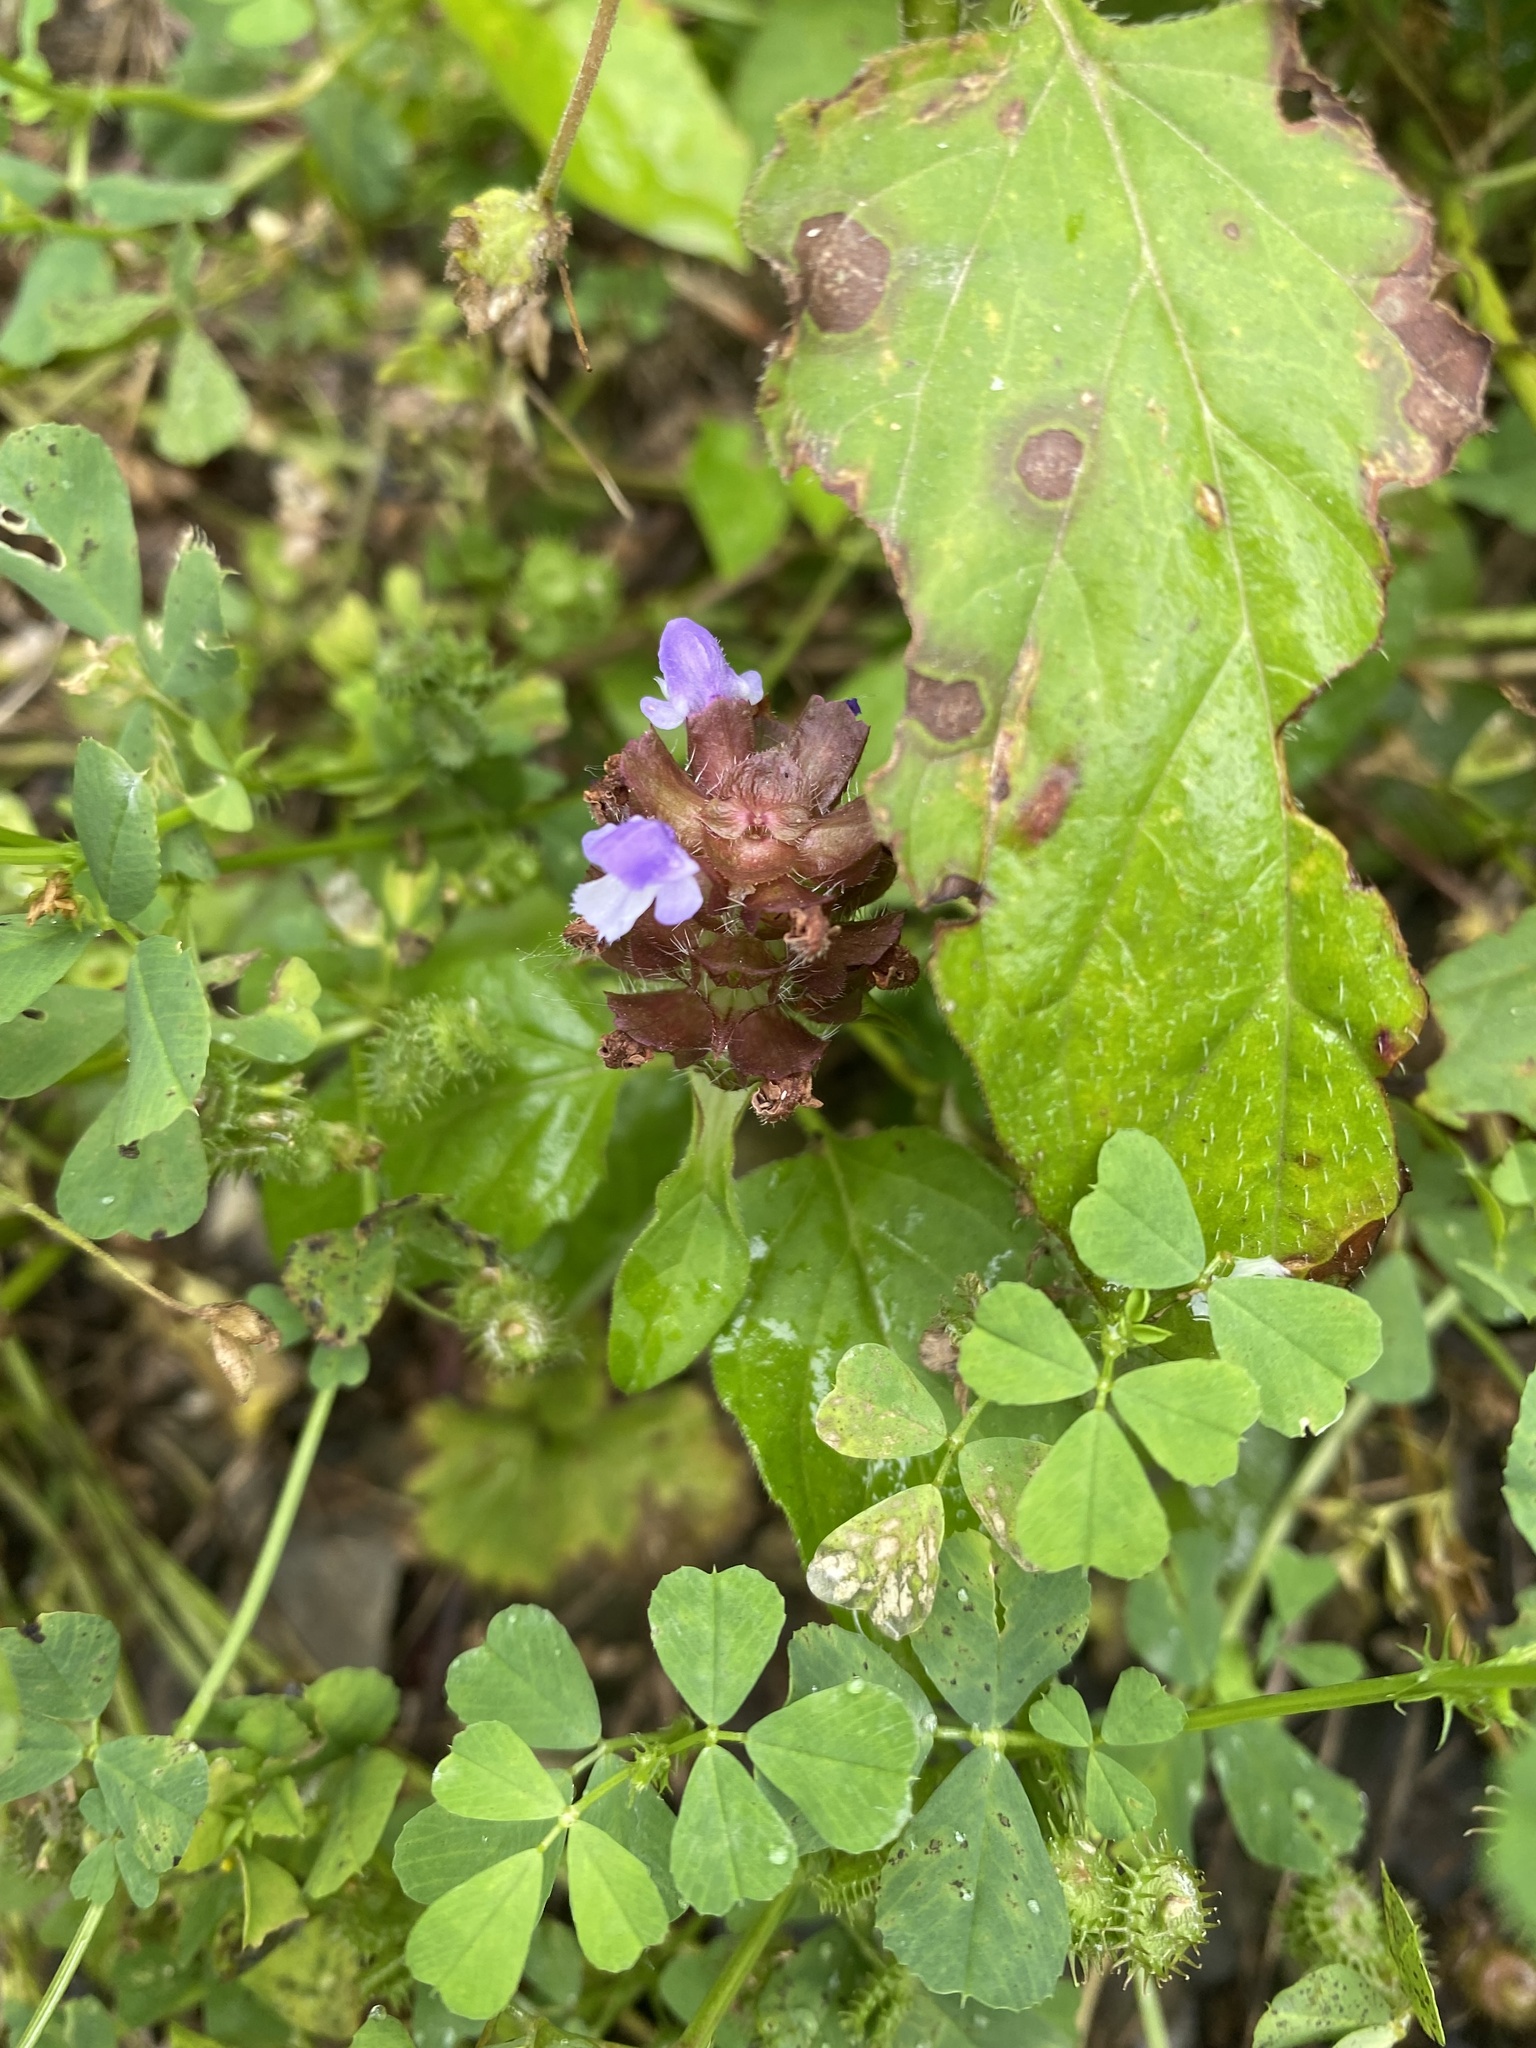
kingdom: Plantae
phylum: Tracheophyta
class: Magnoliopsida
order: Lamiales
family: Lamiaceae
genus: Prunella
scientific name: Prunella vulgaris
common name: Heal-all
